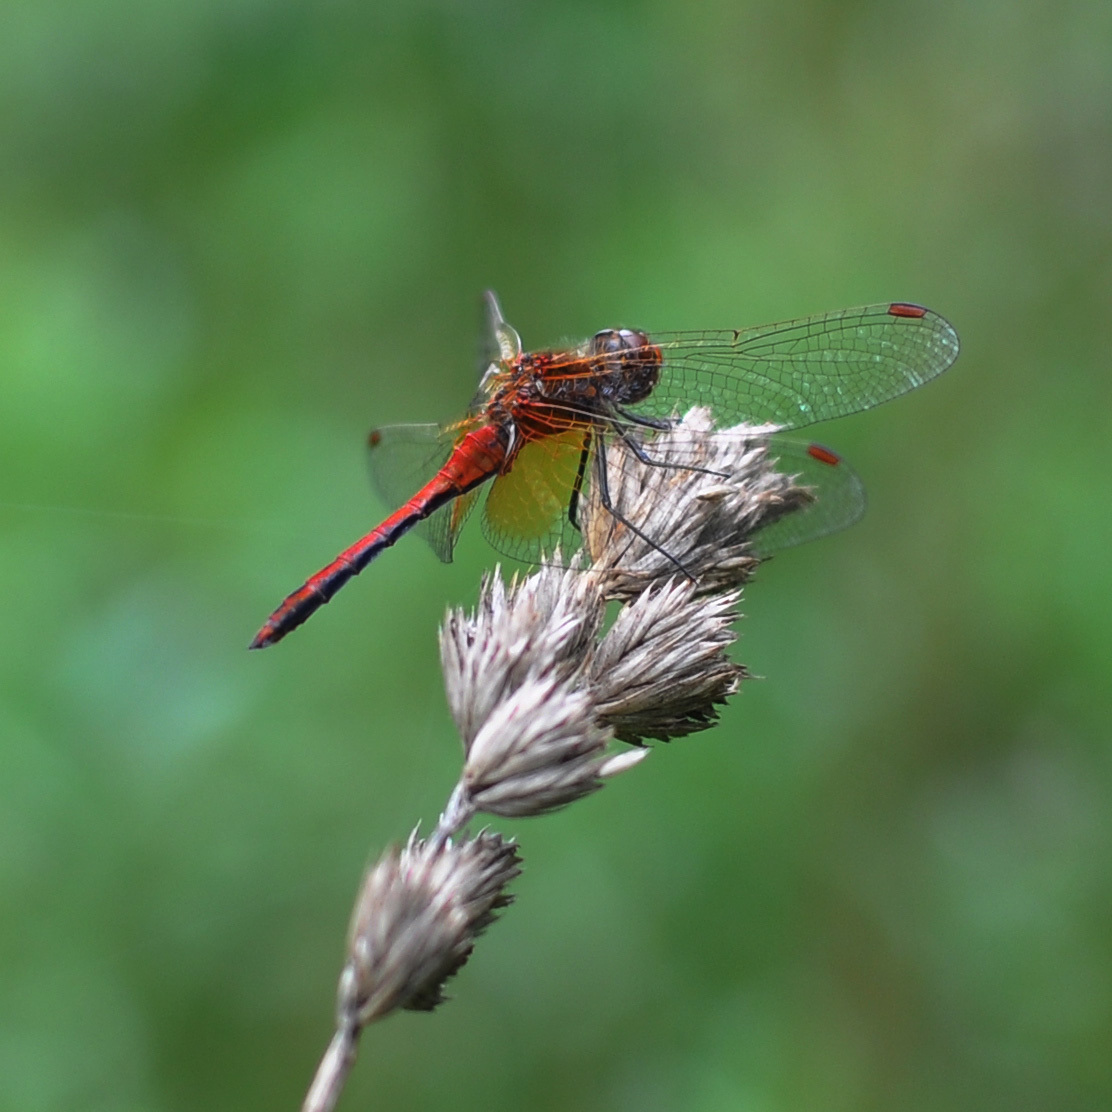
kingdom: Animalia
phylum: Arthropoda
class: Insecta
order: Odonata
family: Libellulidae
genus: Sympetrum
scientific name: Sympetrum flaveolum
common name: Yellow-winged darter
